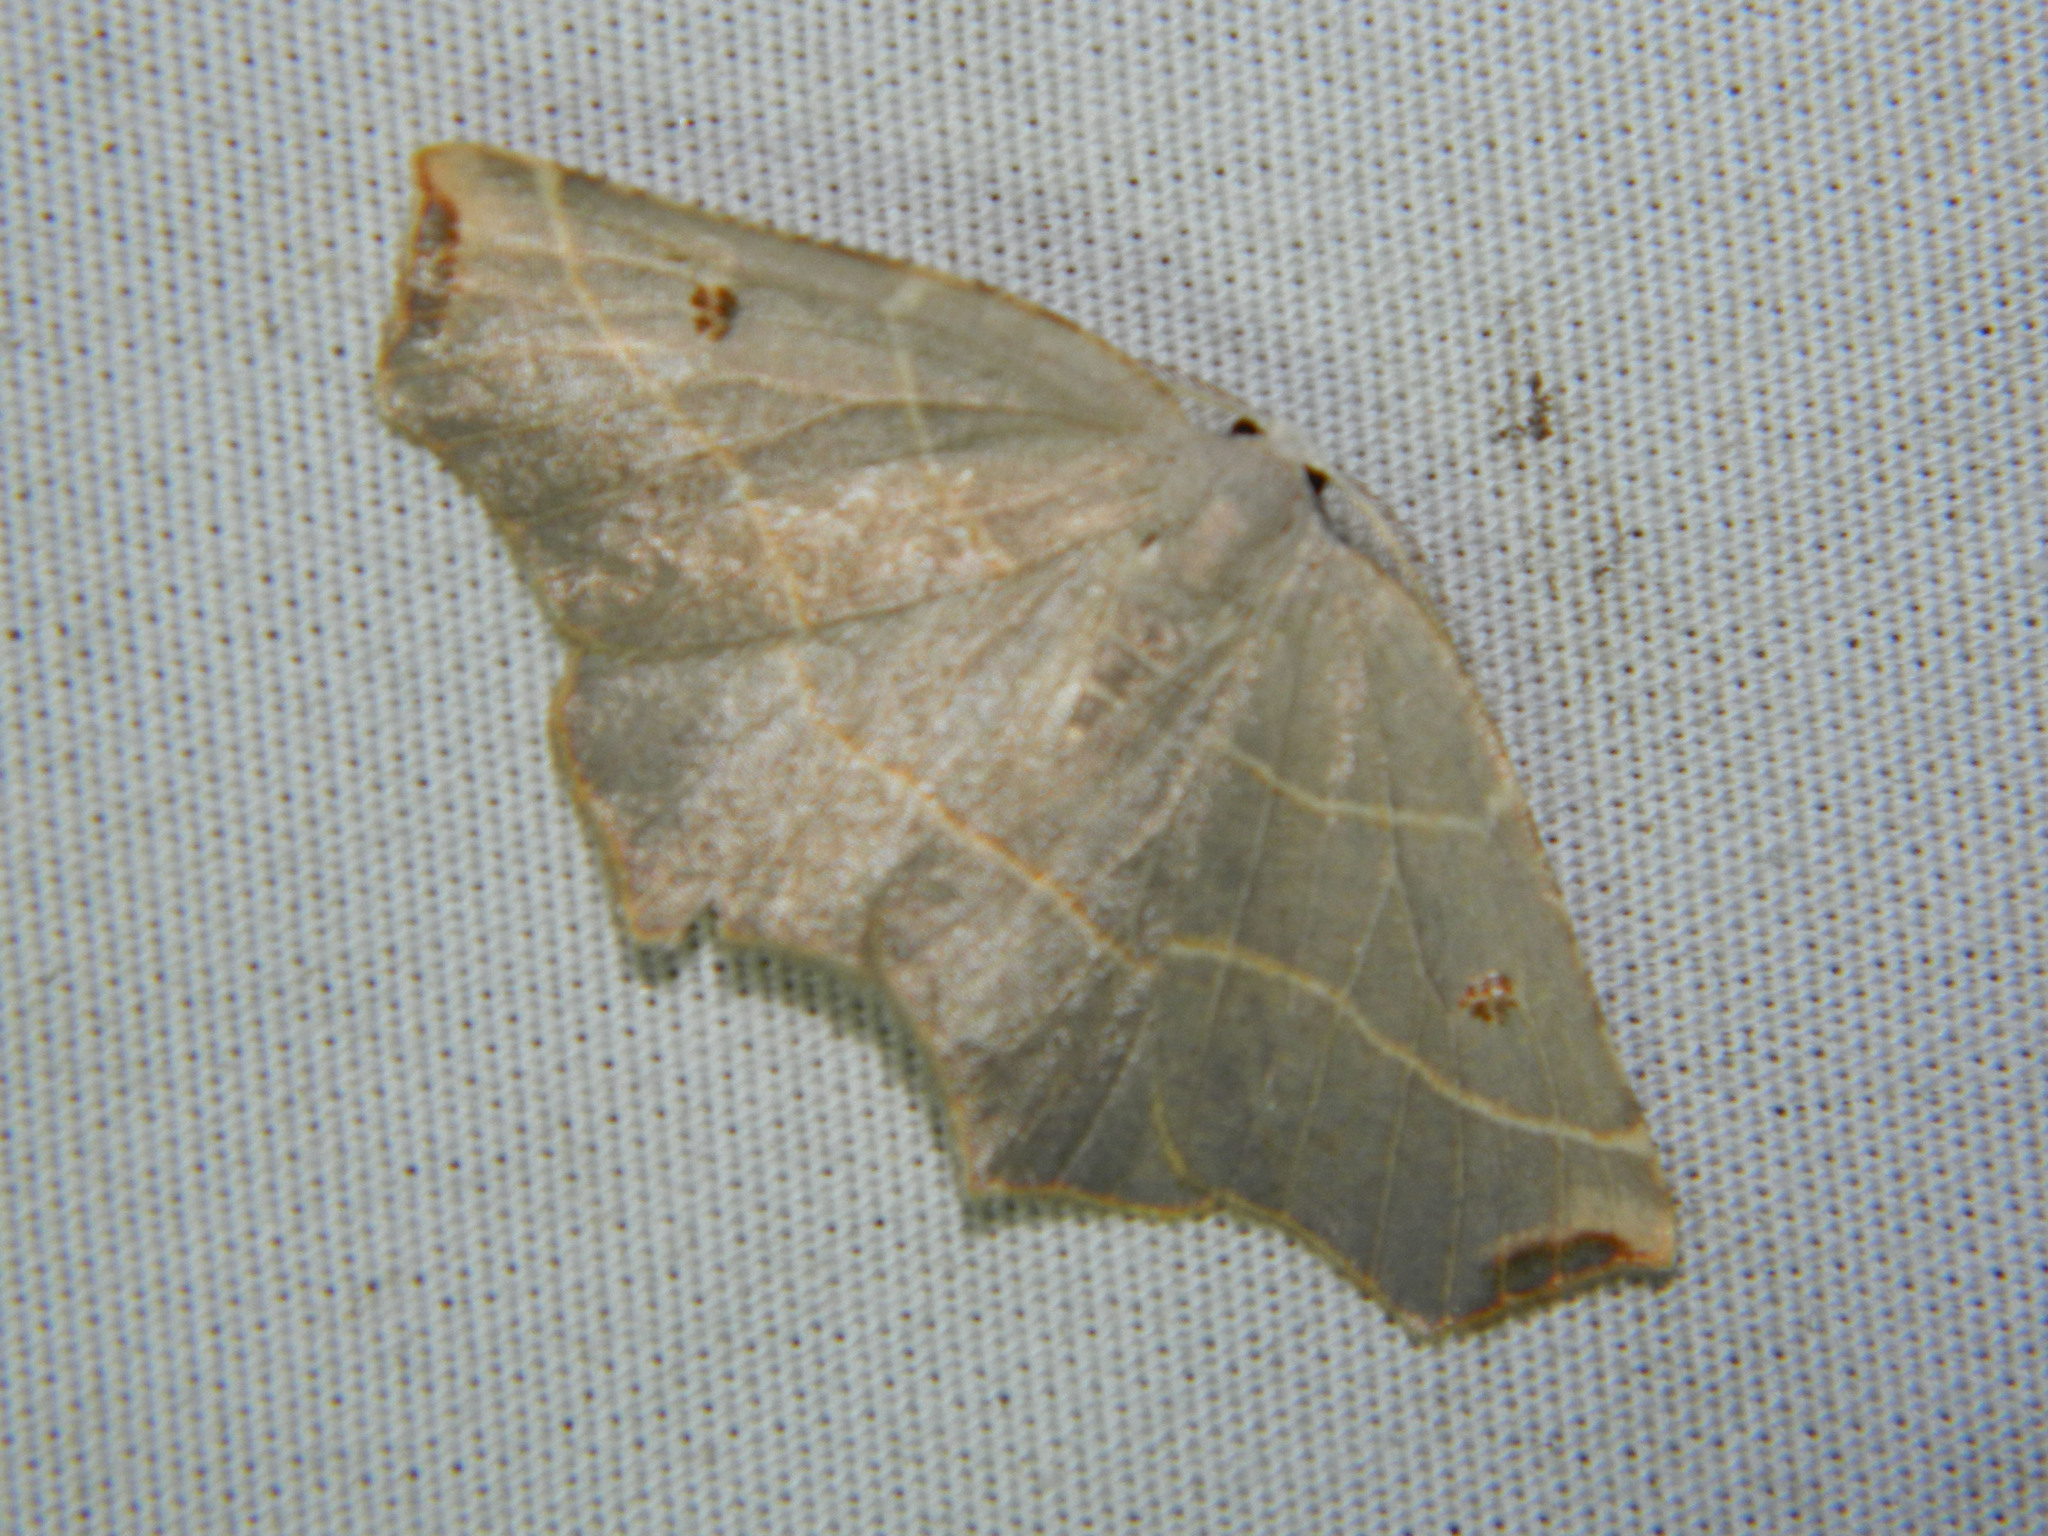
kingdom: Animalia
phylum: Arthropoda
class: Insecta
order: Lepidoptera
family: Geometridae
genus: Metanema
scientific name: Metanema inatomaria
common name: Pale metanema
